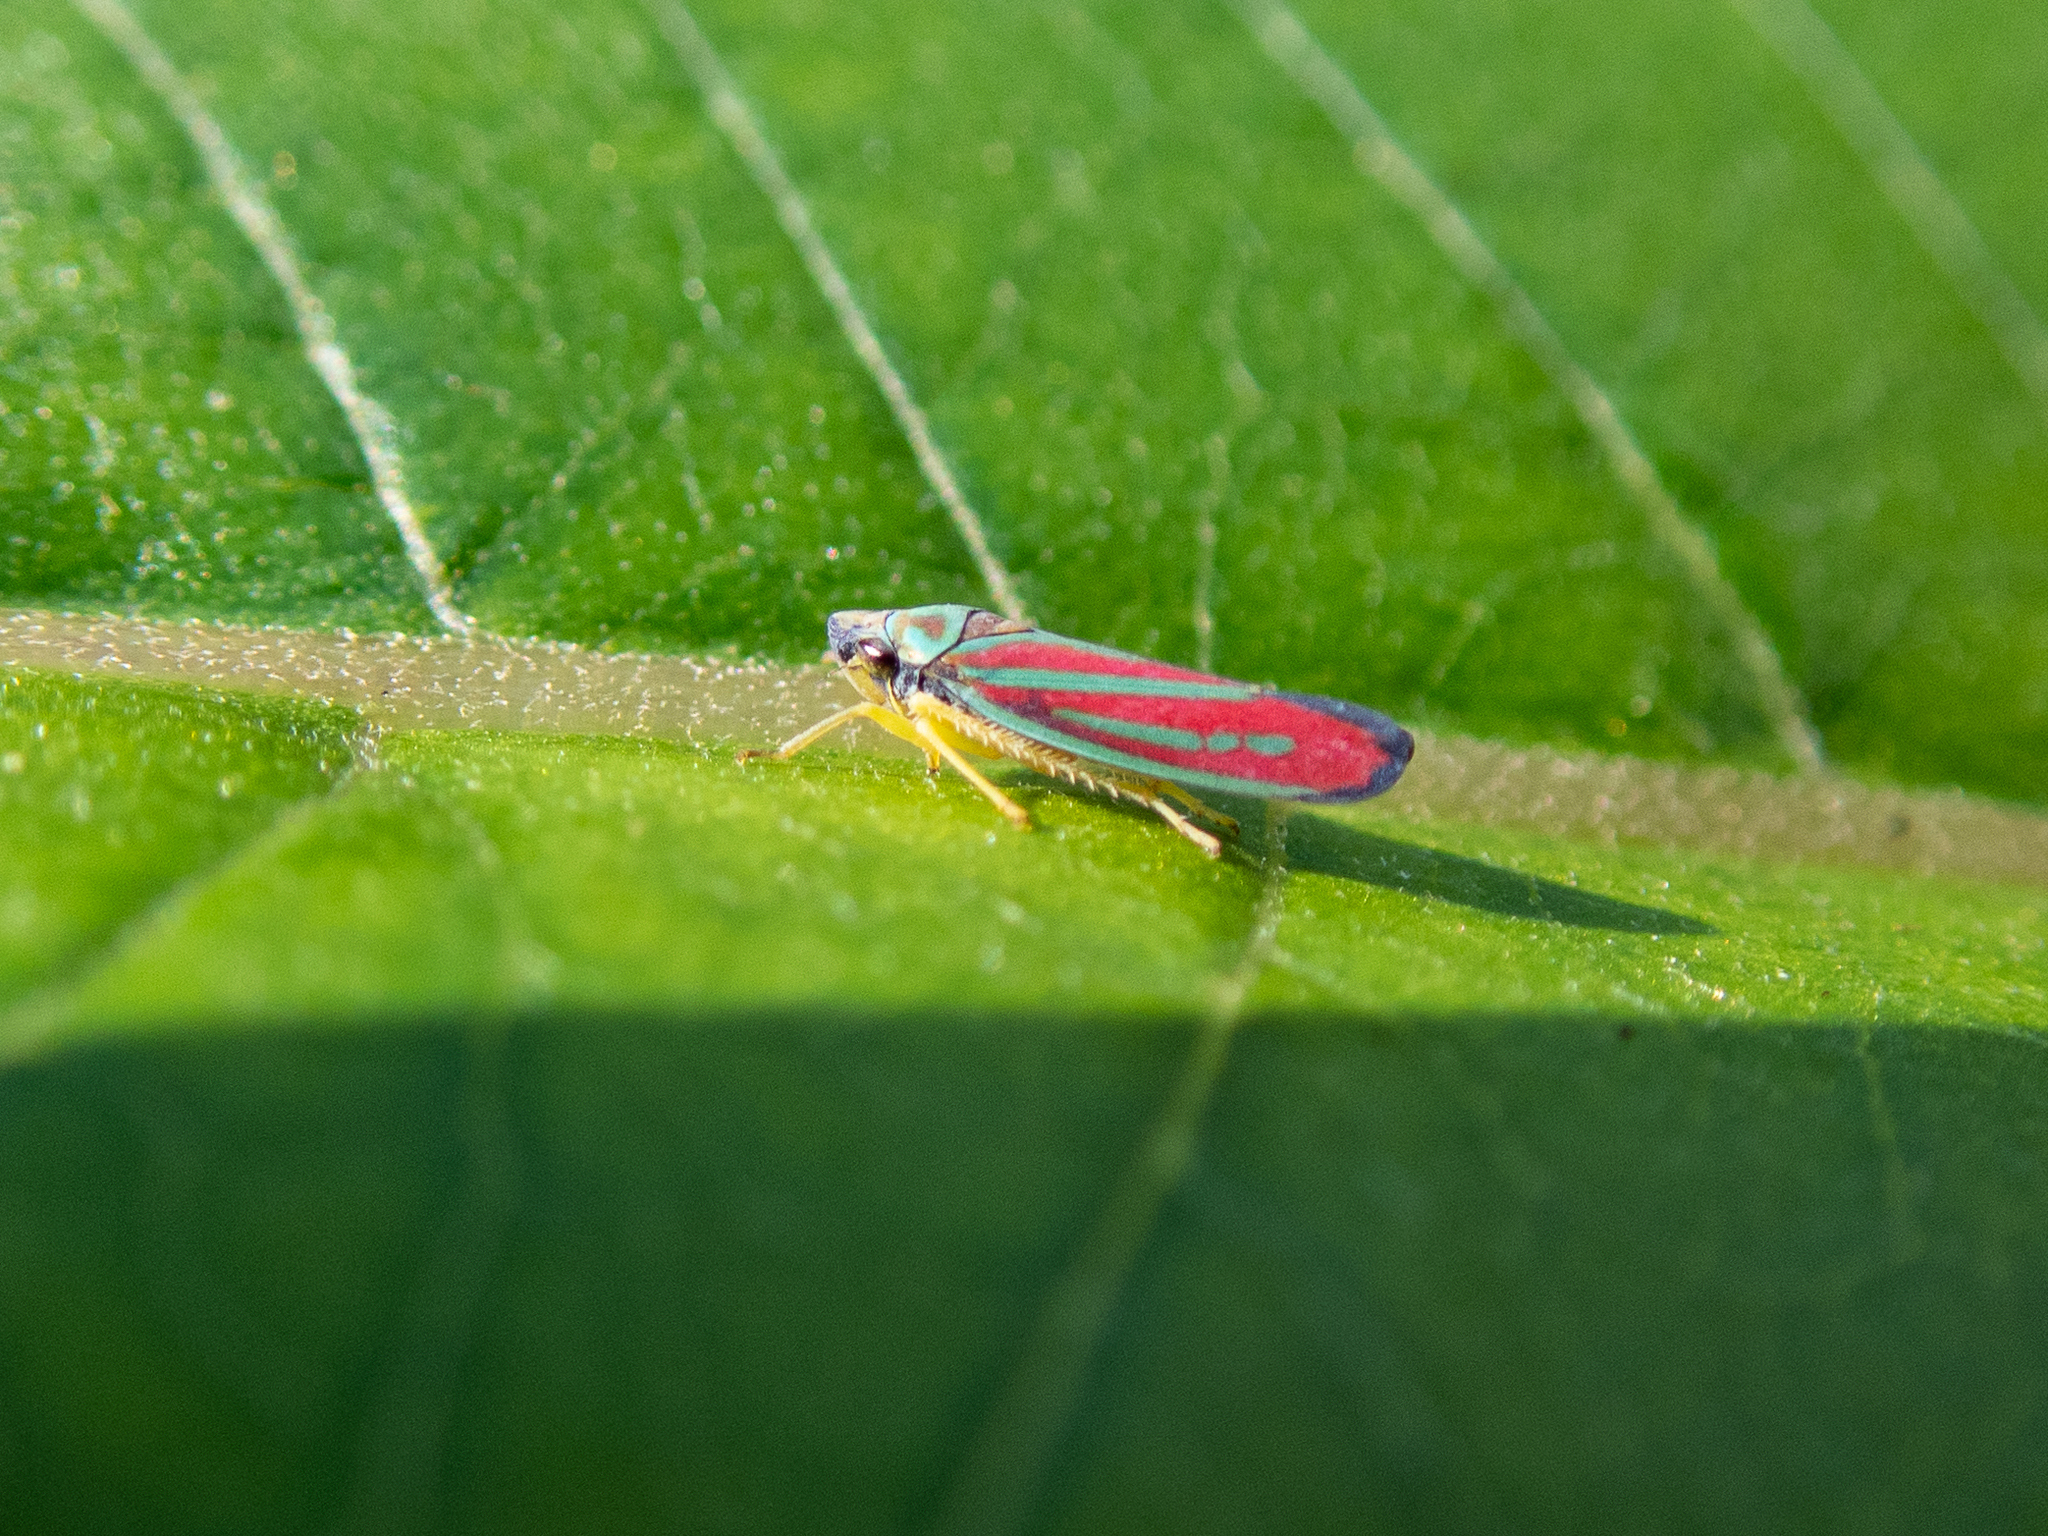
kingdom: Animalia
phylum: Arthropoda
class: Insecta
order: Hemiptera
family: Cicadellidae
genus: Graphocephala
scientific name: Graphocephala coccinea
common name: Candy-striped leafhopper
